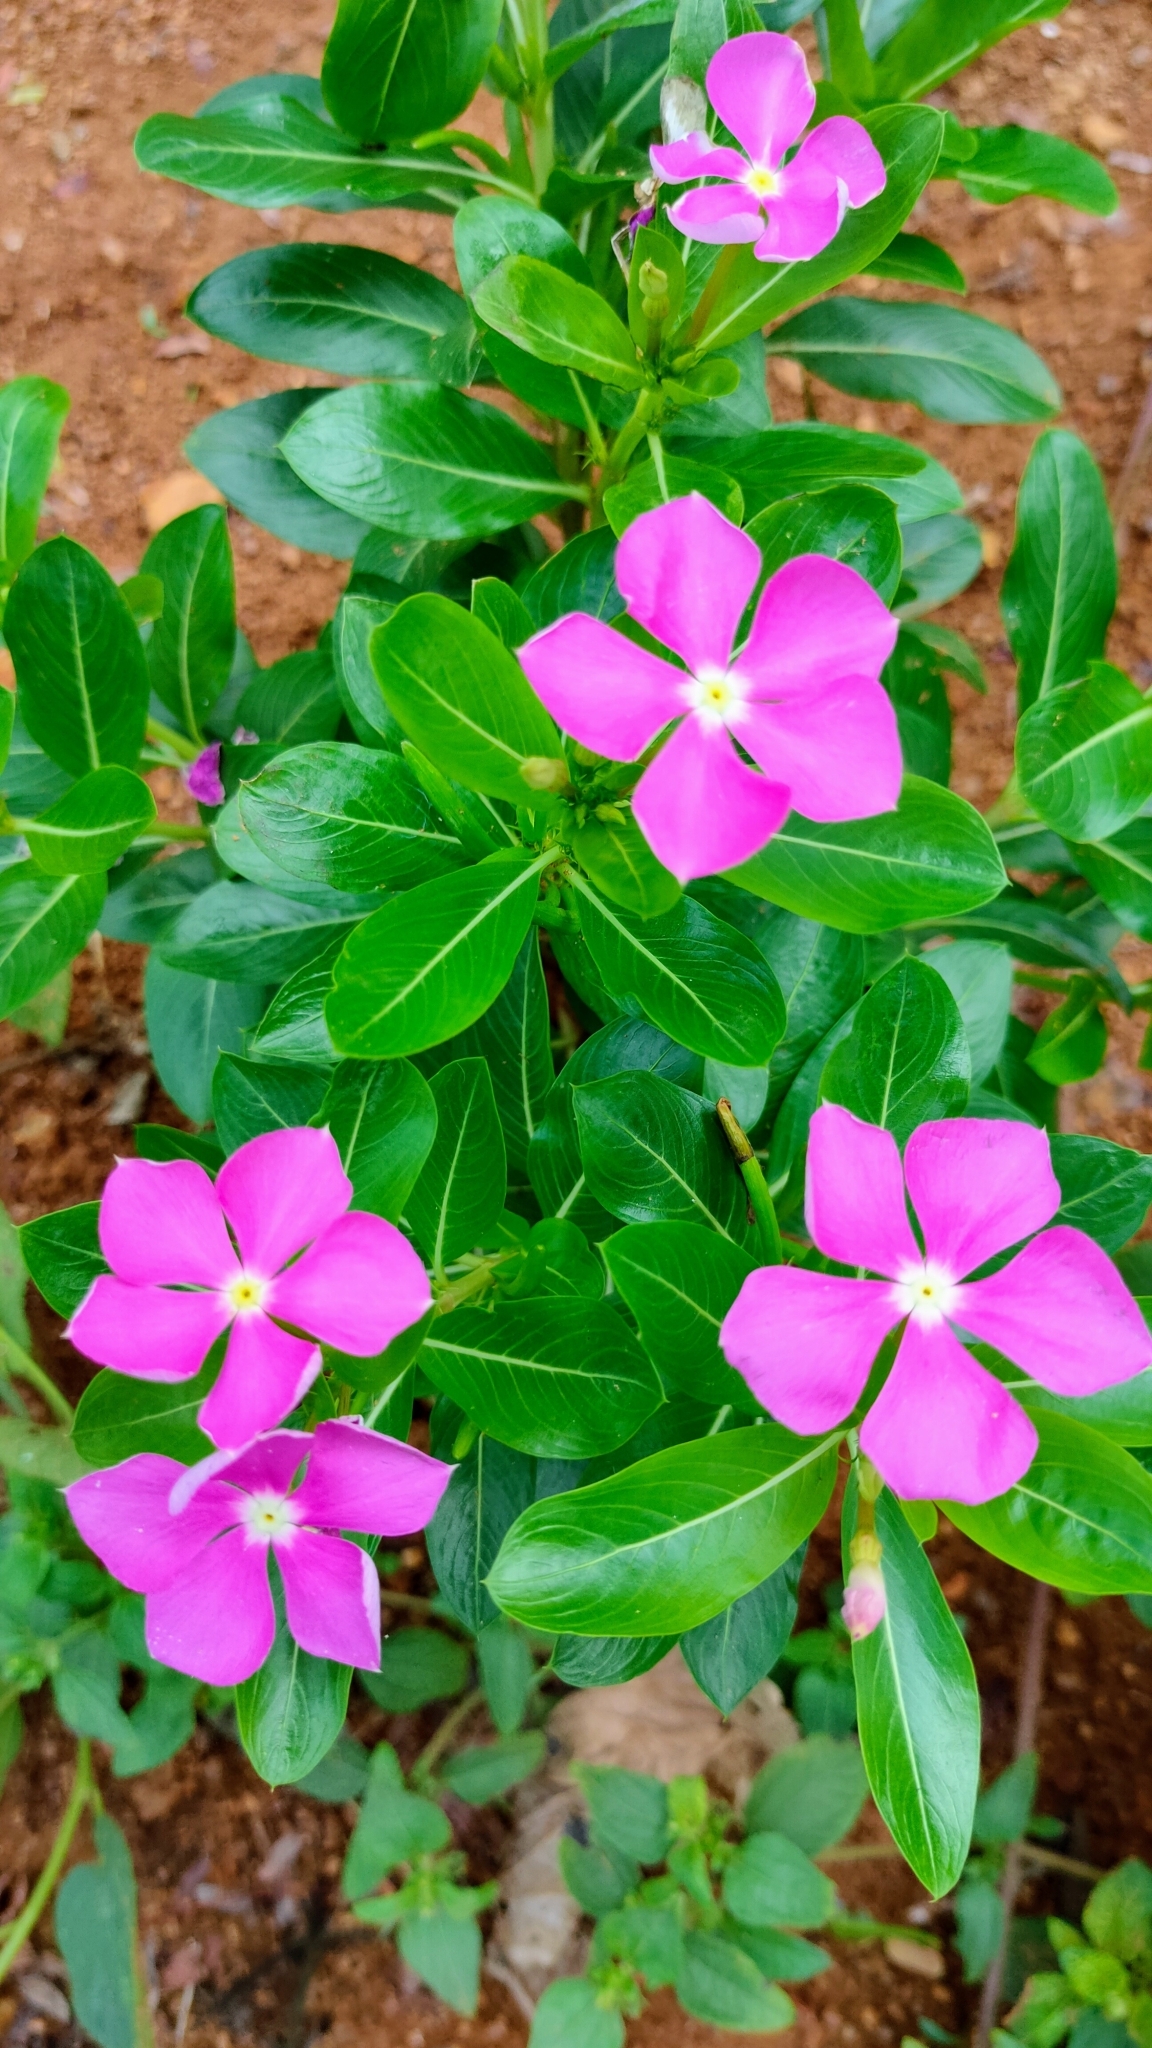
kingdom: Plantae
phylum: Tracheophyta
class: Magnoliopsida
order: Gentianales
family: Apocynaceae
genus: Catharanthus
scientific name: Catharanthus roseus
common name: Madagascar periwinkle
